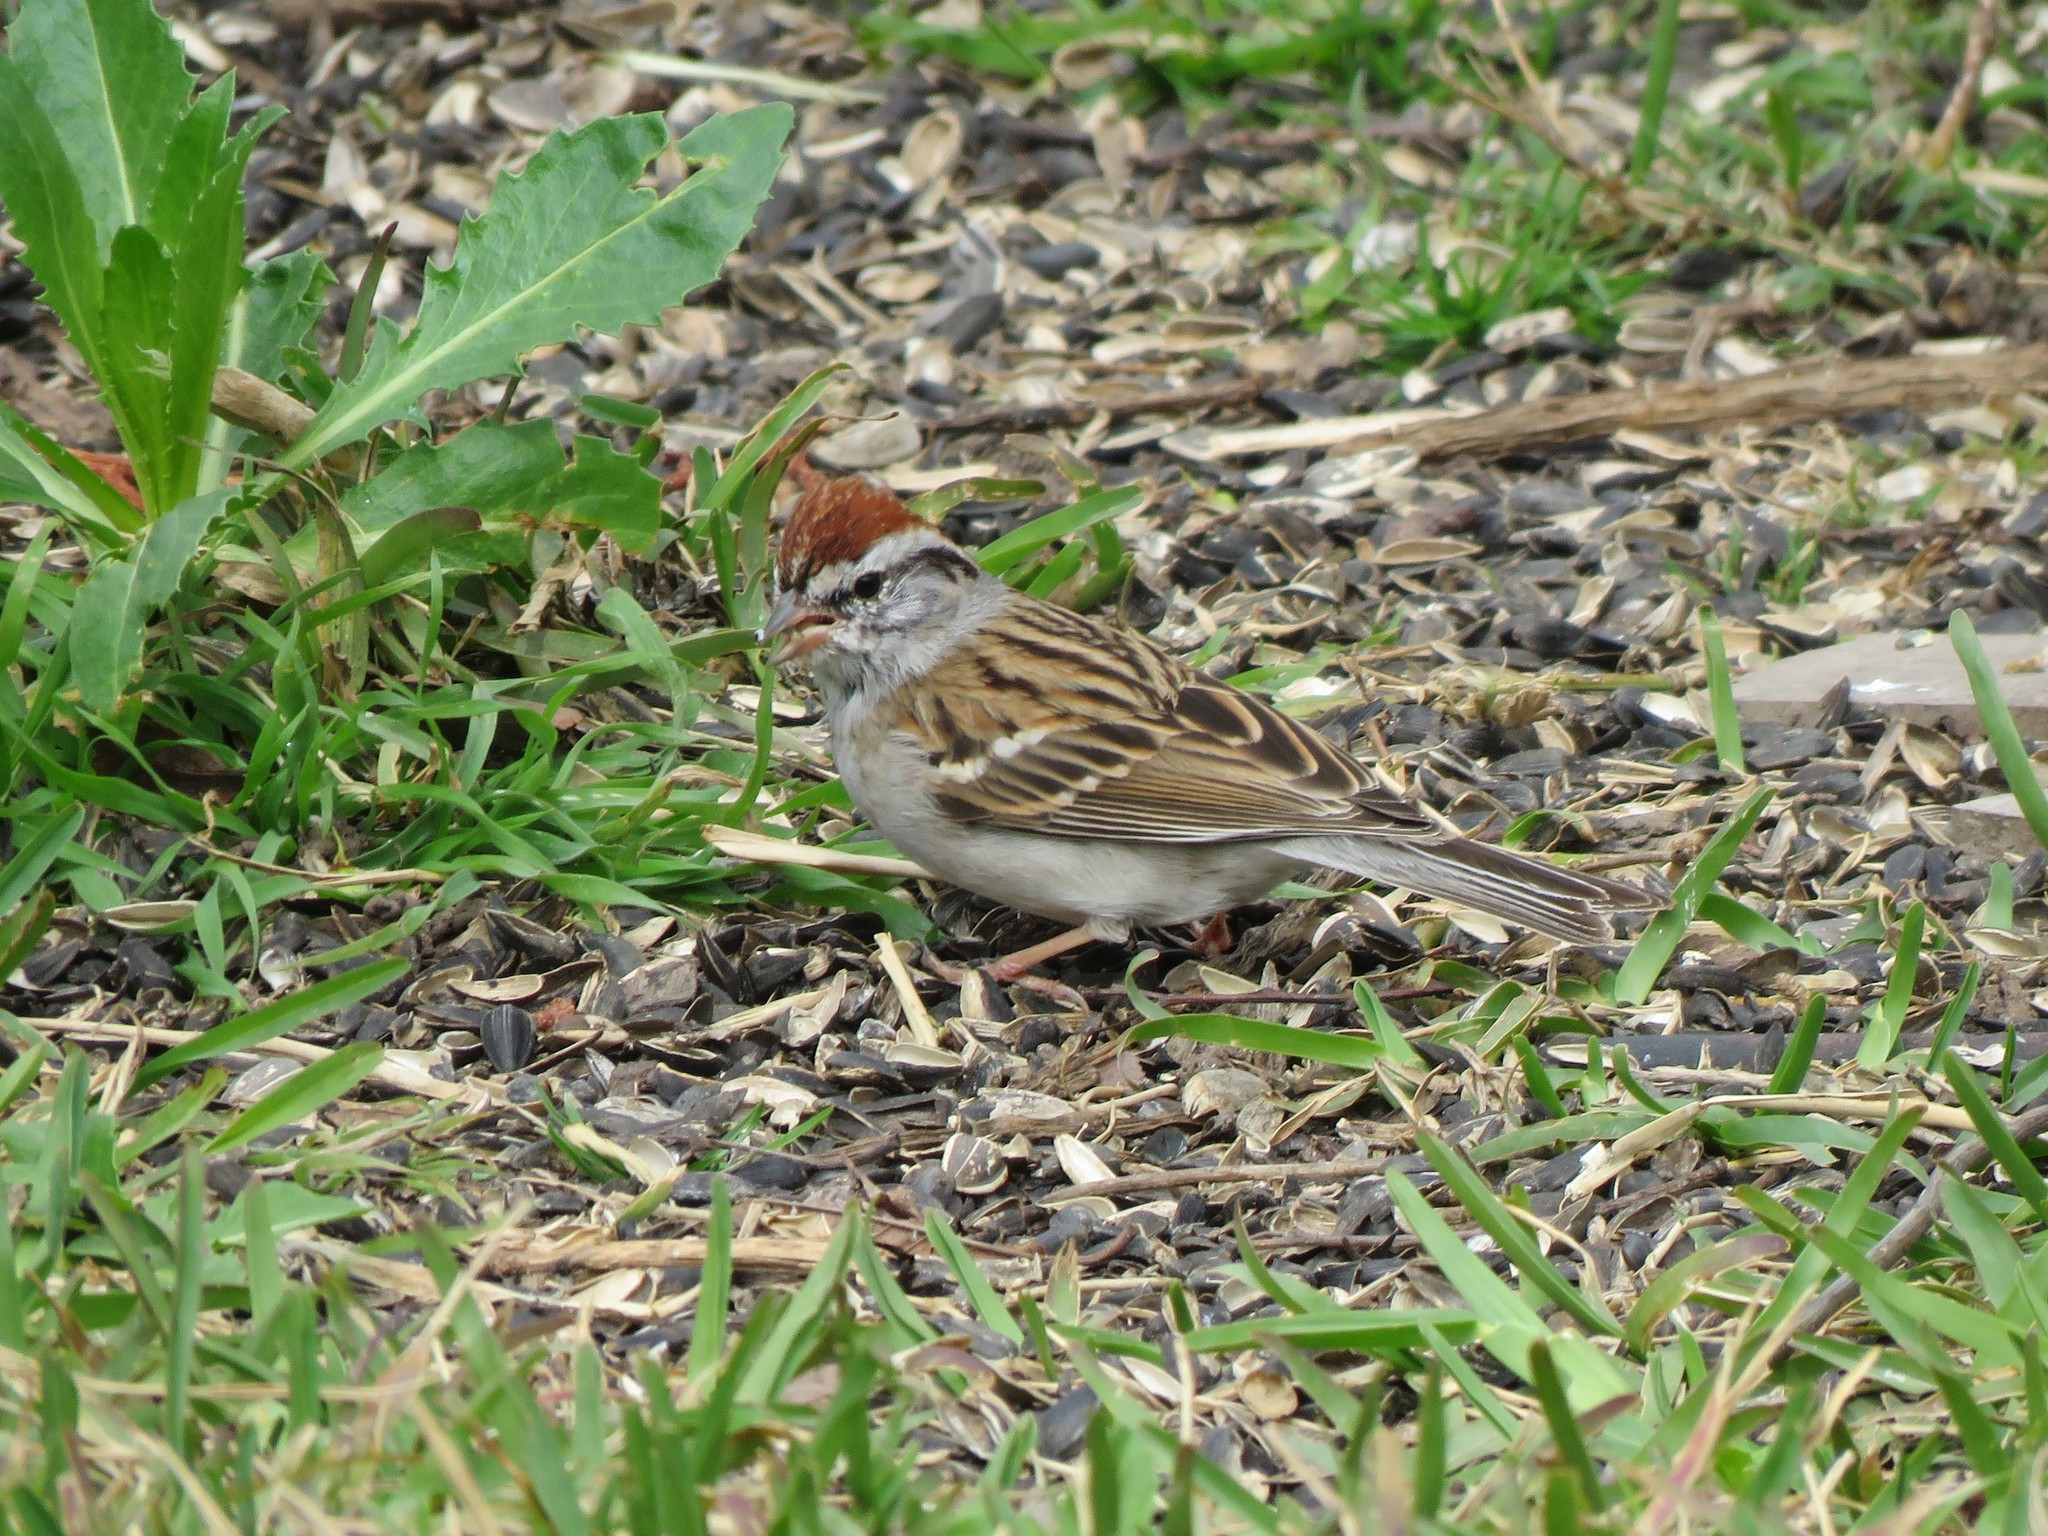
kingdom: Animalia
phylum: Chordata
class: Aves
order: Passeriformes
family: Passerellidae
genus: Spizella
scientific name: Spizella passerina
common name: Chipping sparrow
